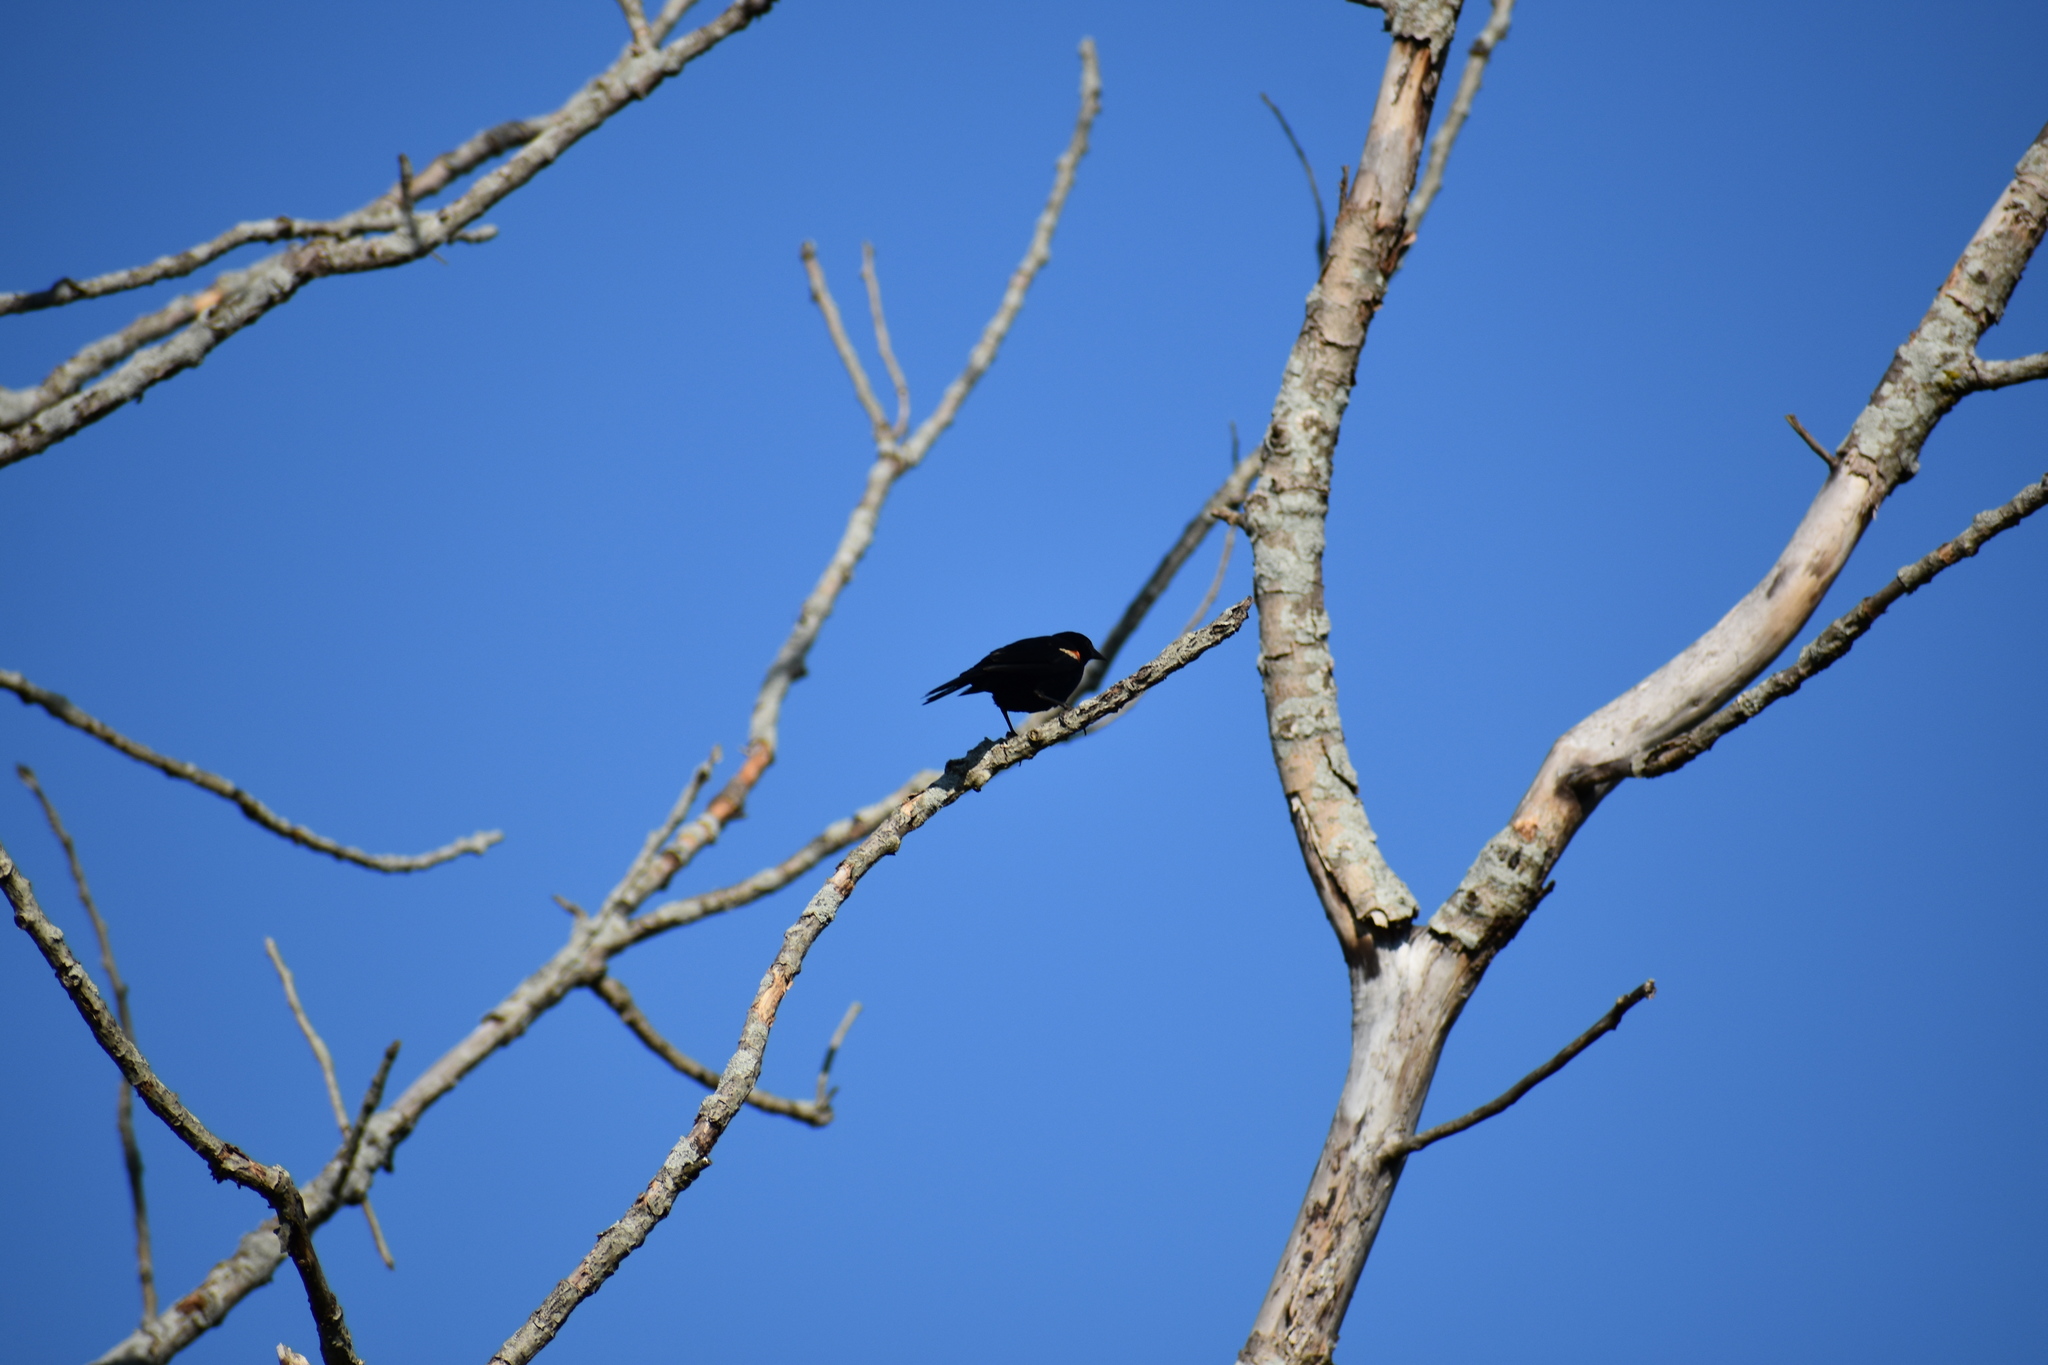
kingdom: Animalia
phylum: Chordata
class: Aves
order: Passeriformes
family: Icteridae
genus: Agelaius
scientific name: Agelaius phoeniceus
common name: Red-winged blackbird
